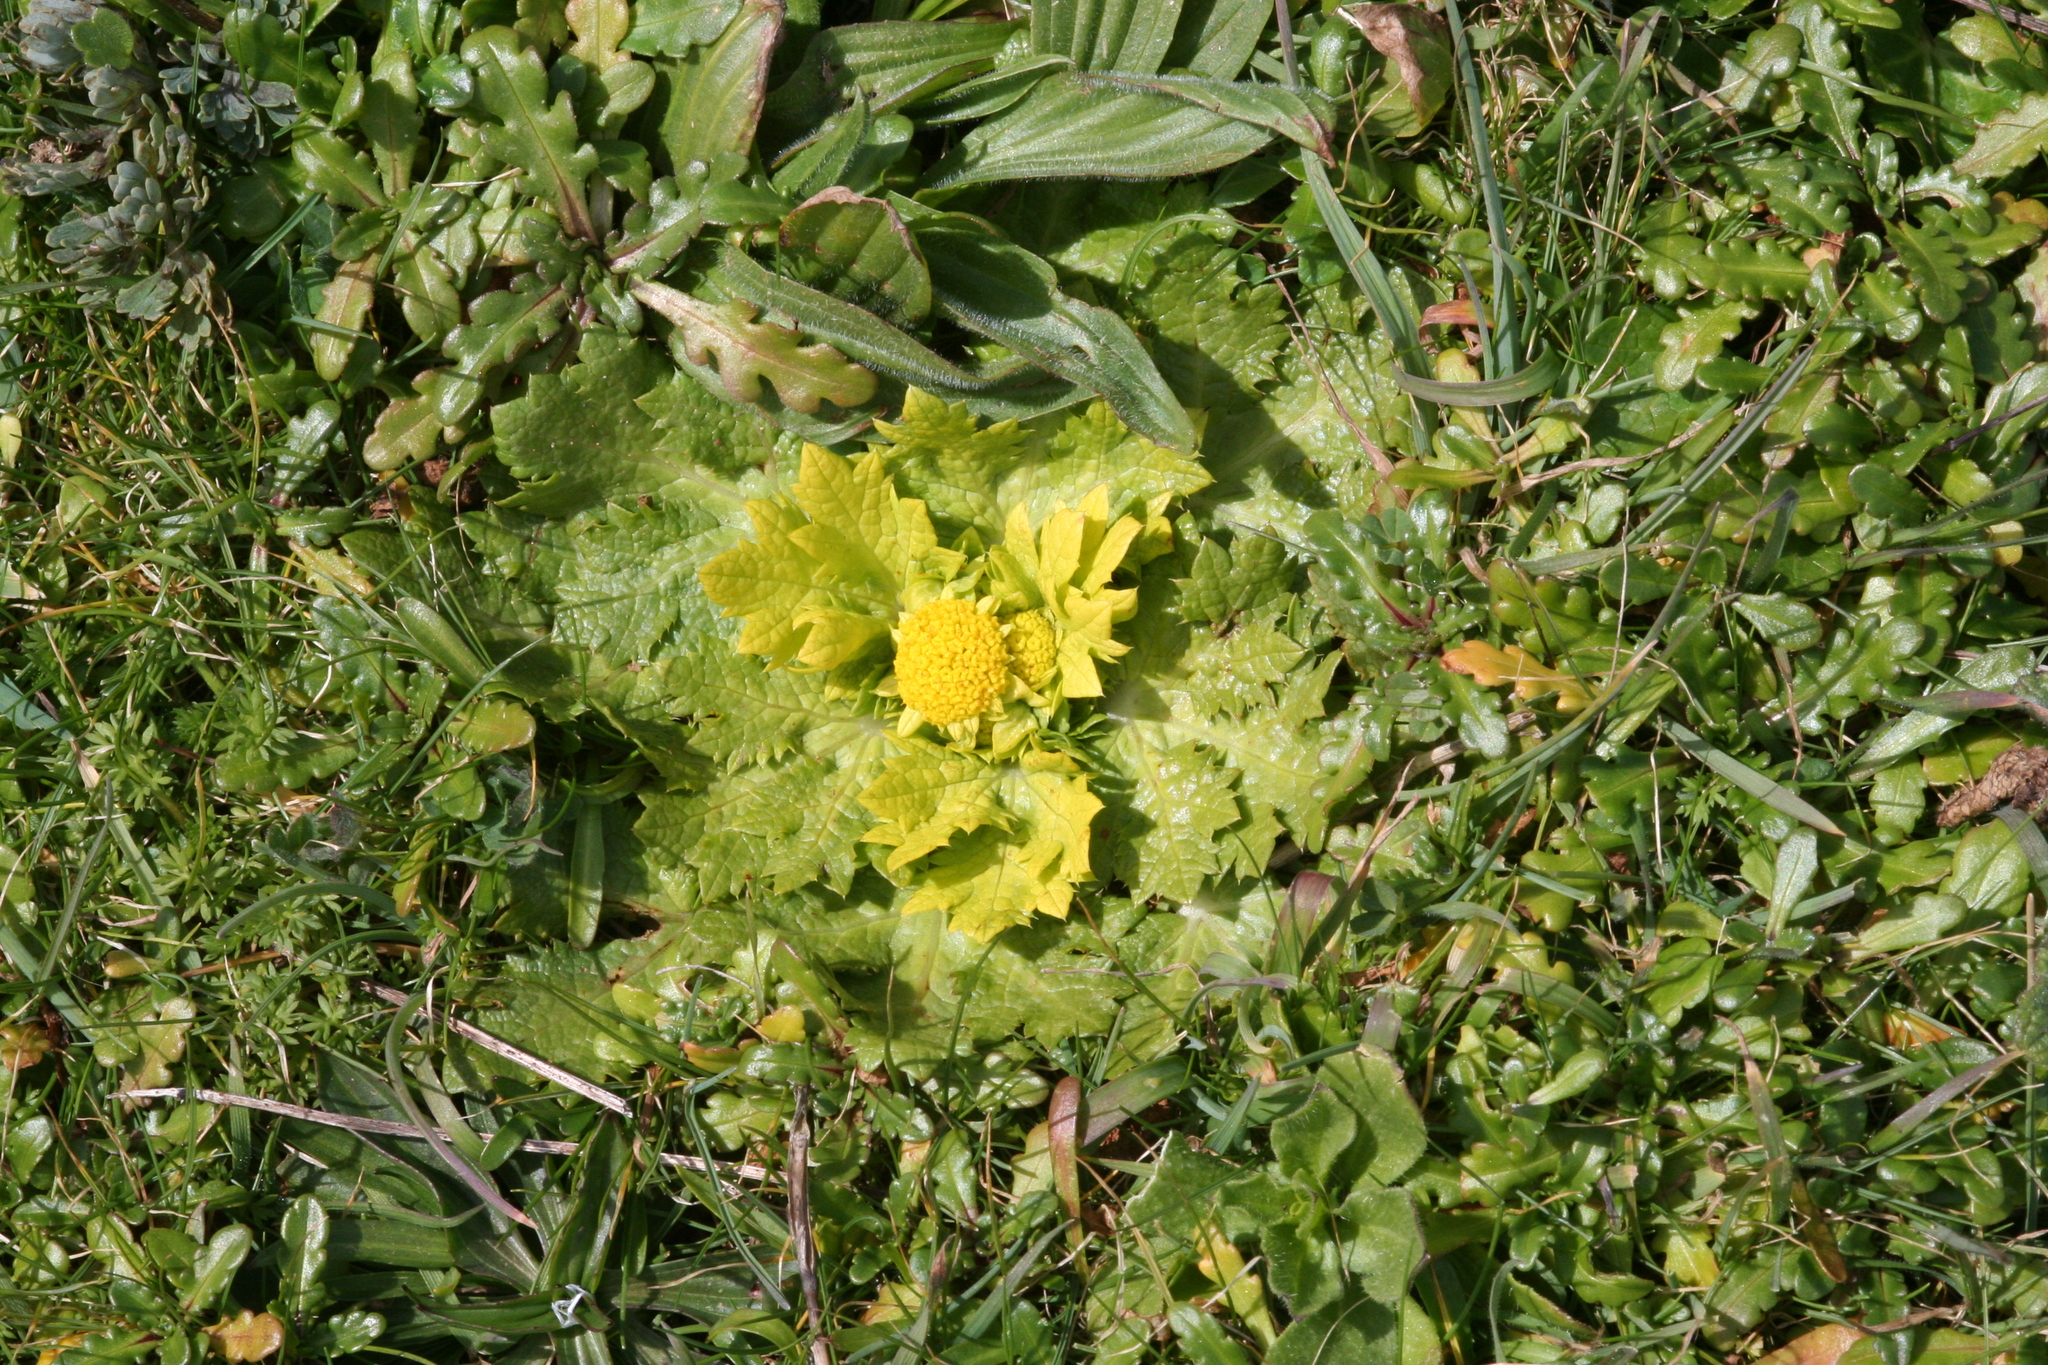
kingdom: Plantae
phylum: Tracheophyta
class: Magnoliopsida
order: Apiales
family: Apiaceae
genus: Sanicula
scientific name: Sanicula arctopoides
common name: Footsteps-of-spring
